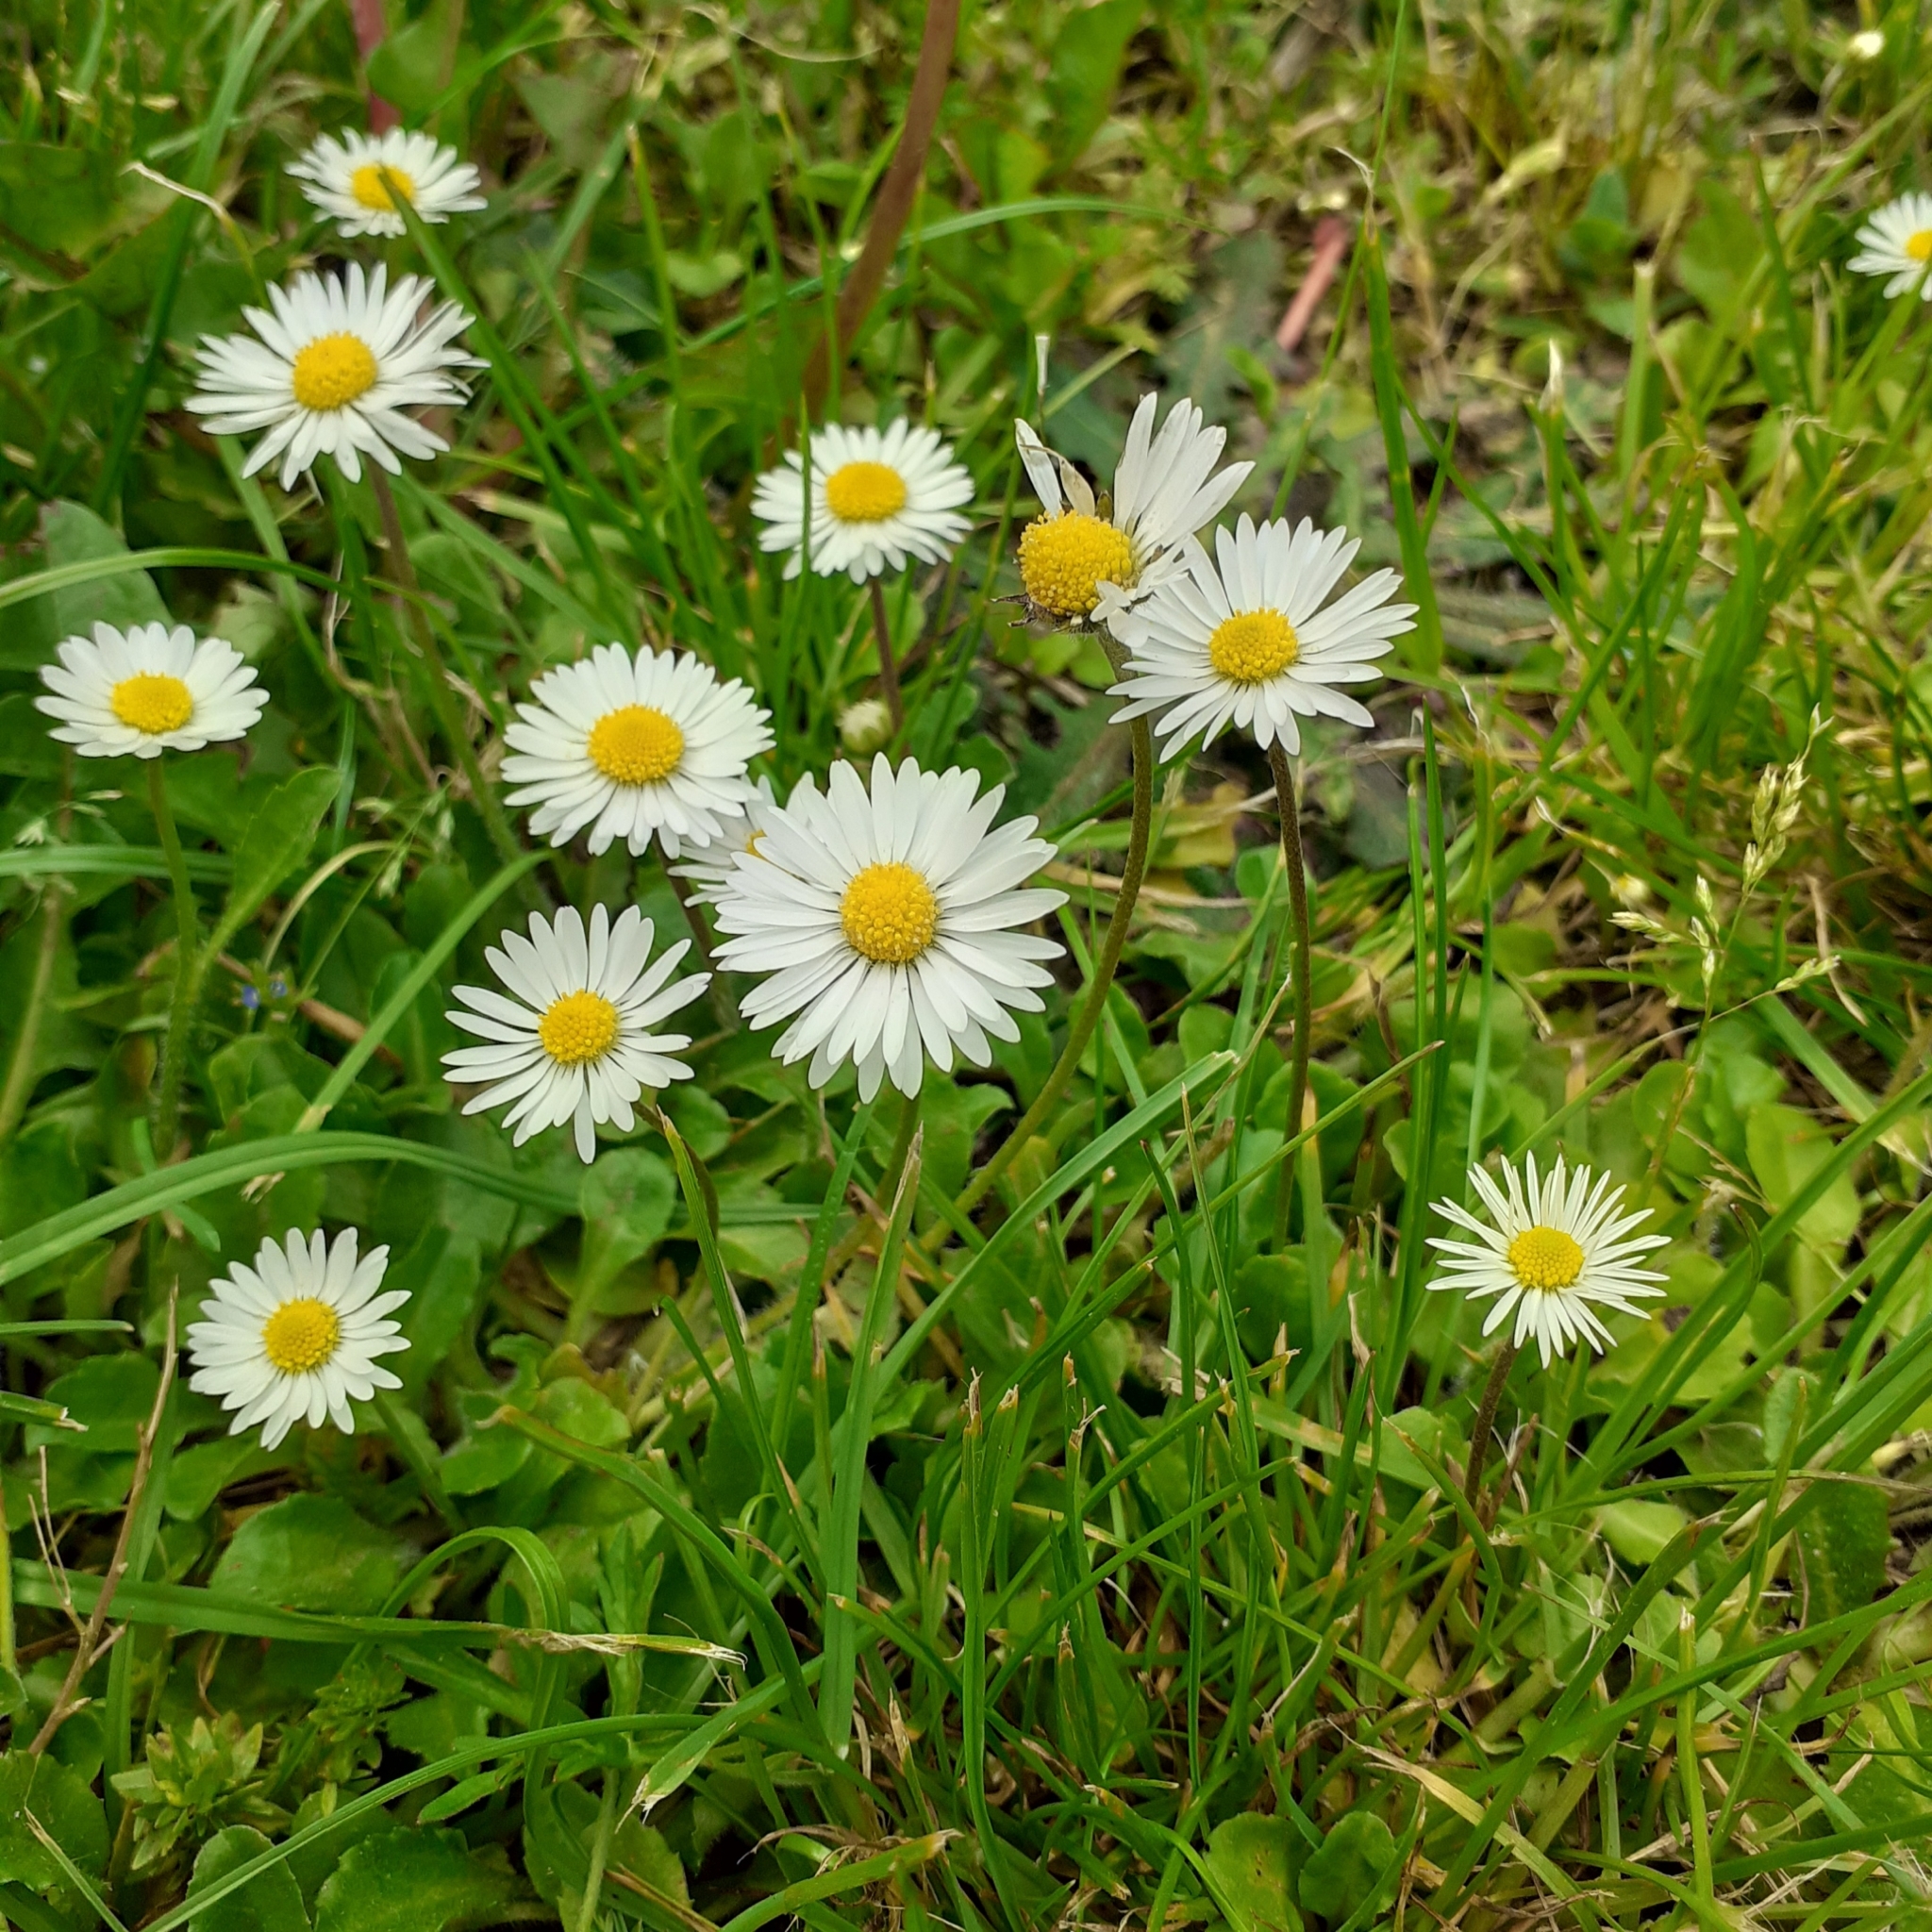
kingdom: Plantae
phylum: Tracheophyta
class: Magnoliopsida
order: Asterales
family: Asteraceae
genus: Bellis
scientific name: Bellis perennis
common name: Lawndaisy
